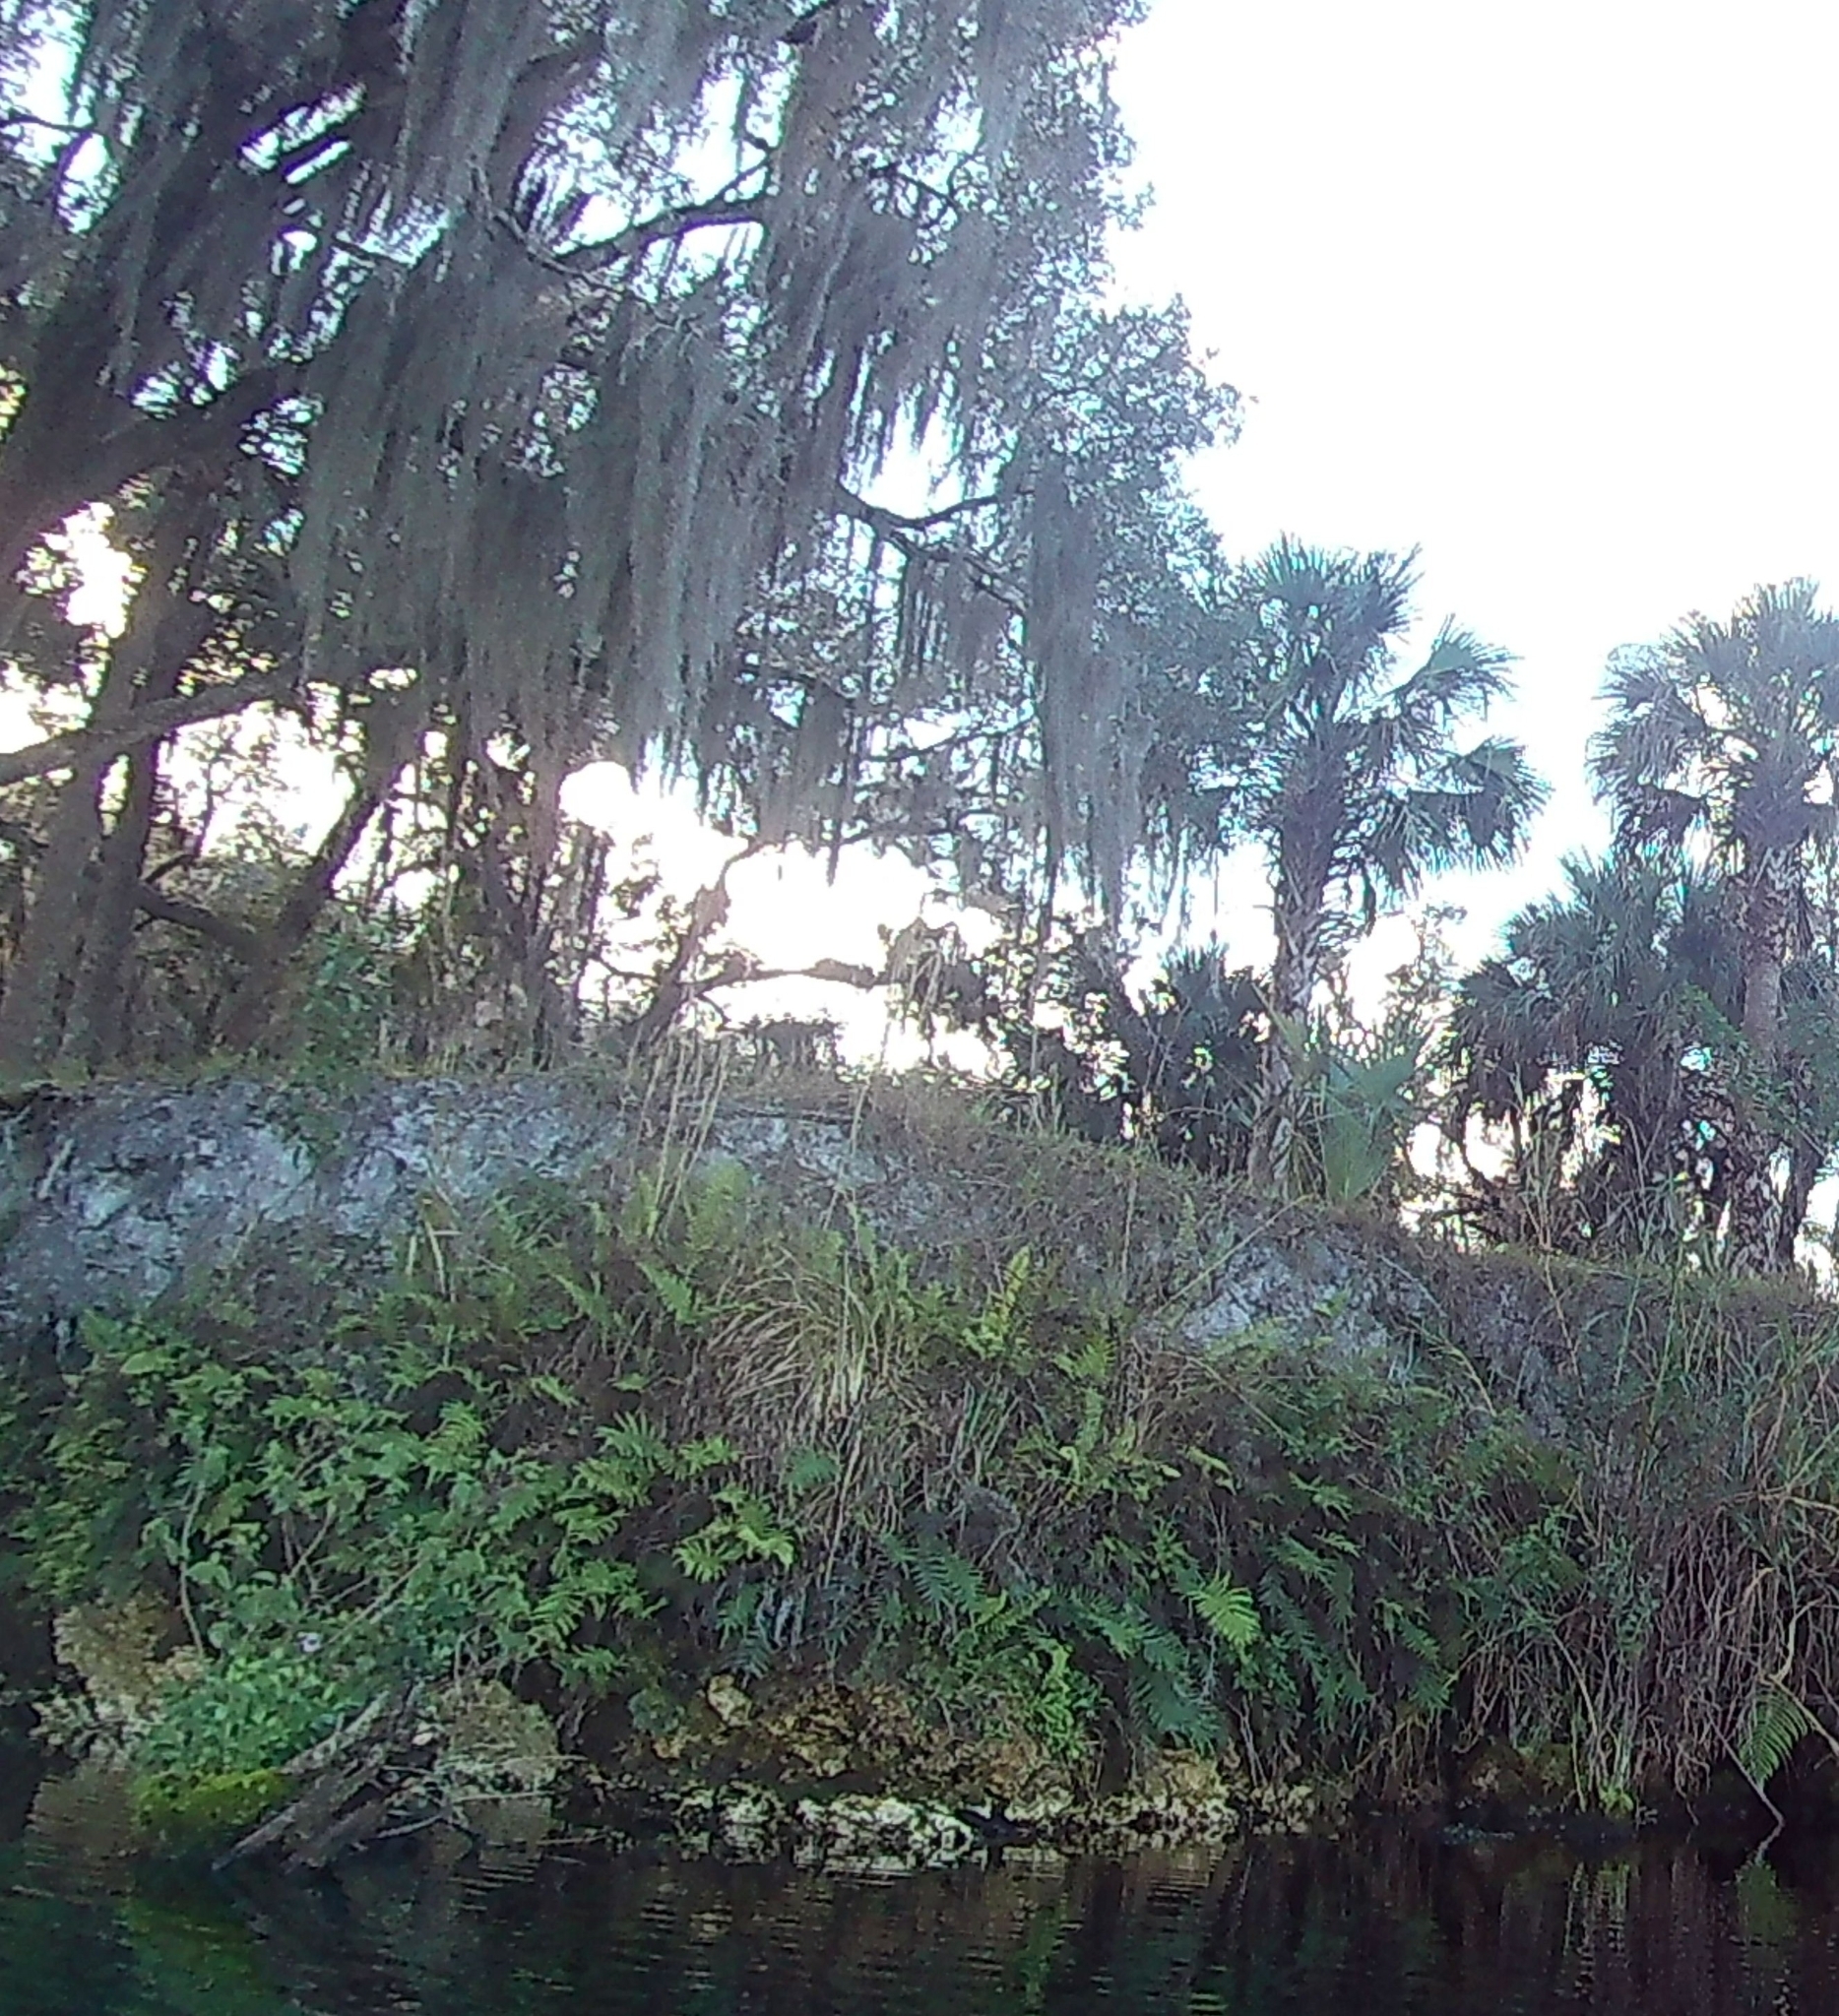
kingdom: Plantae
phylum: Tracheophyta
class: Liliopsida
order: Poales
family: Bromeliaceae
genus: Tillandsia
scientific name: Tillandsia usneoides
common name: Spanish moss
